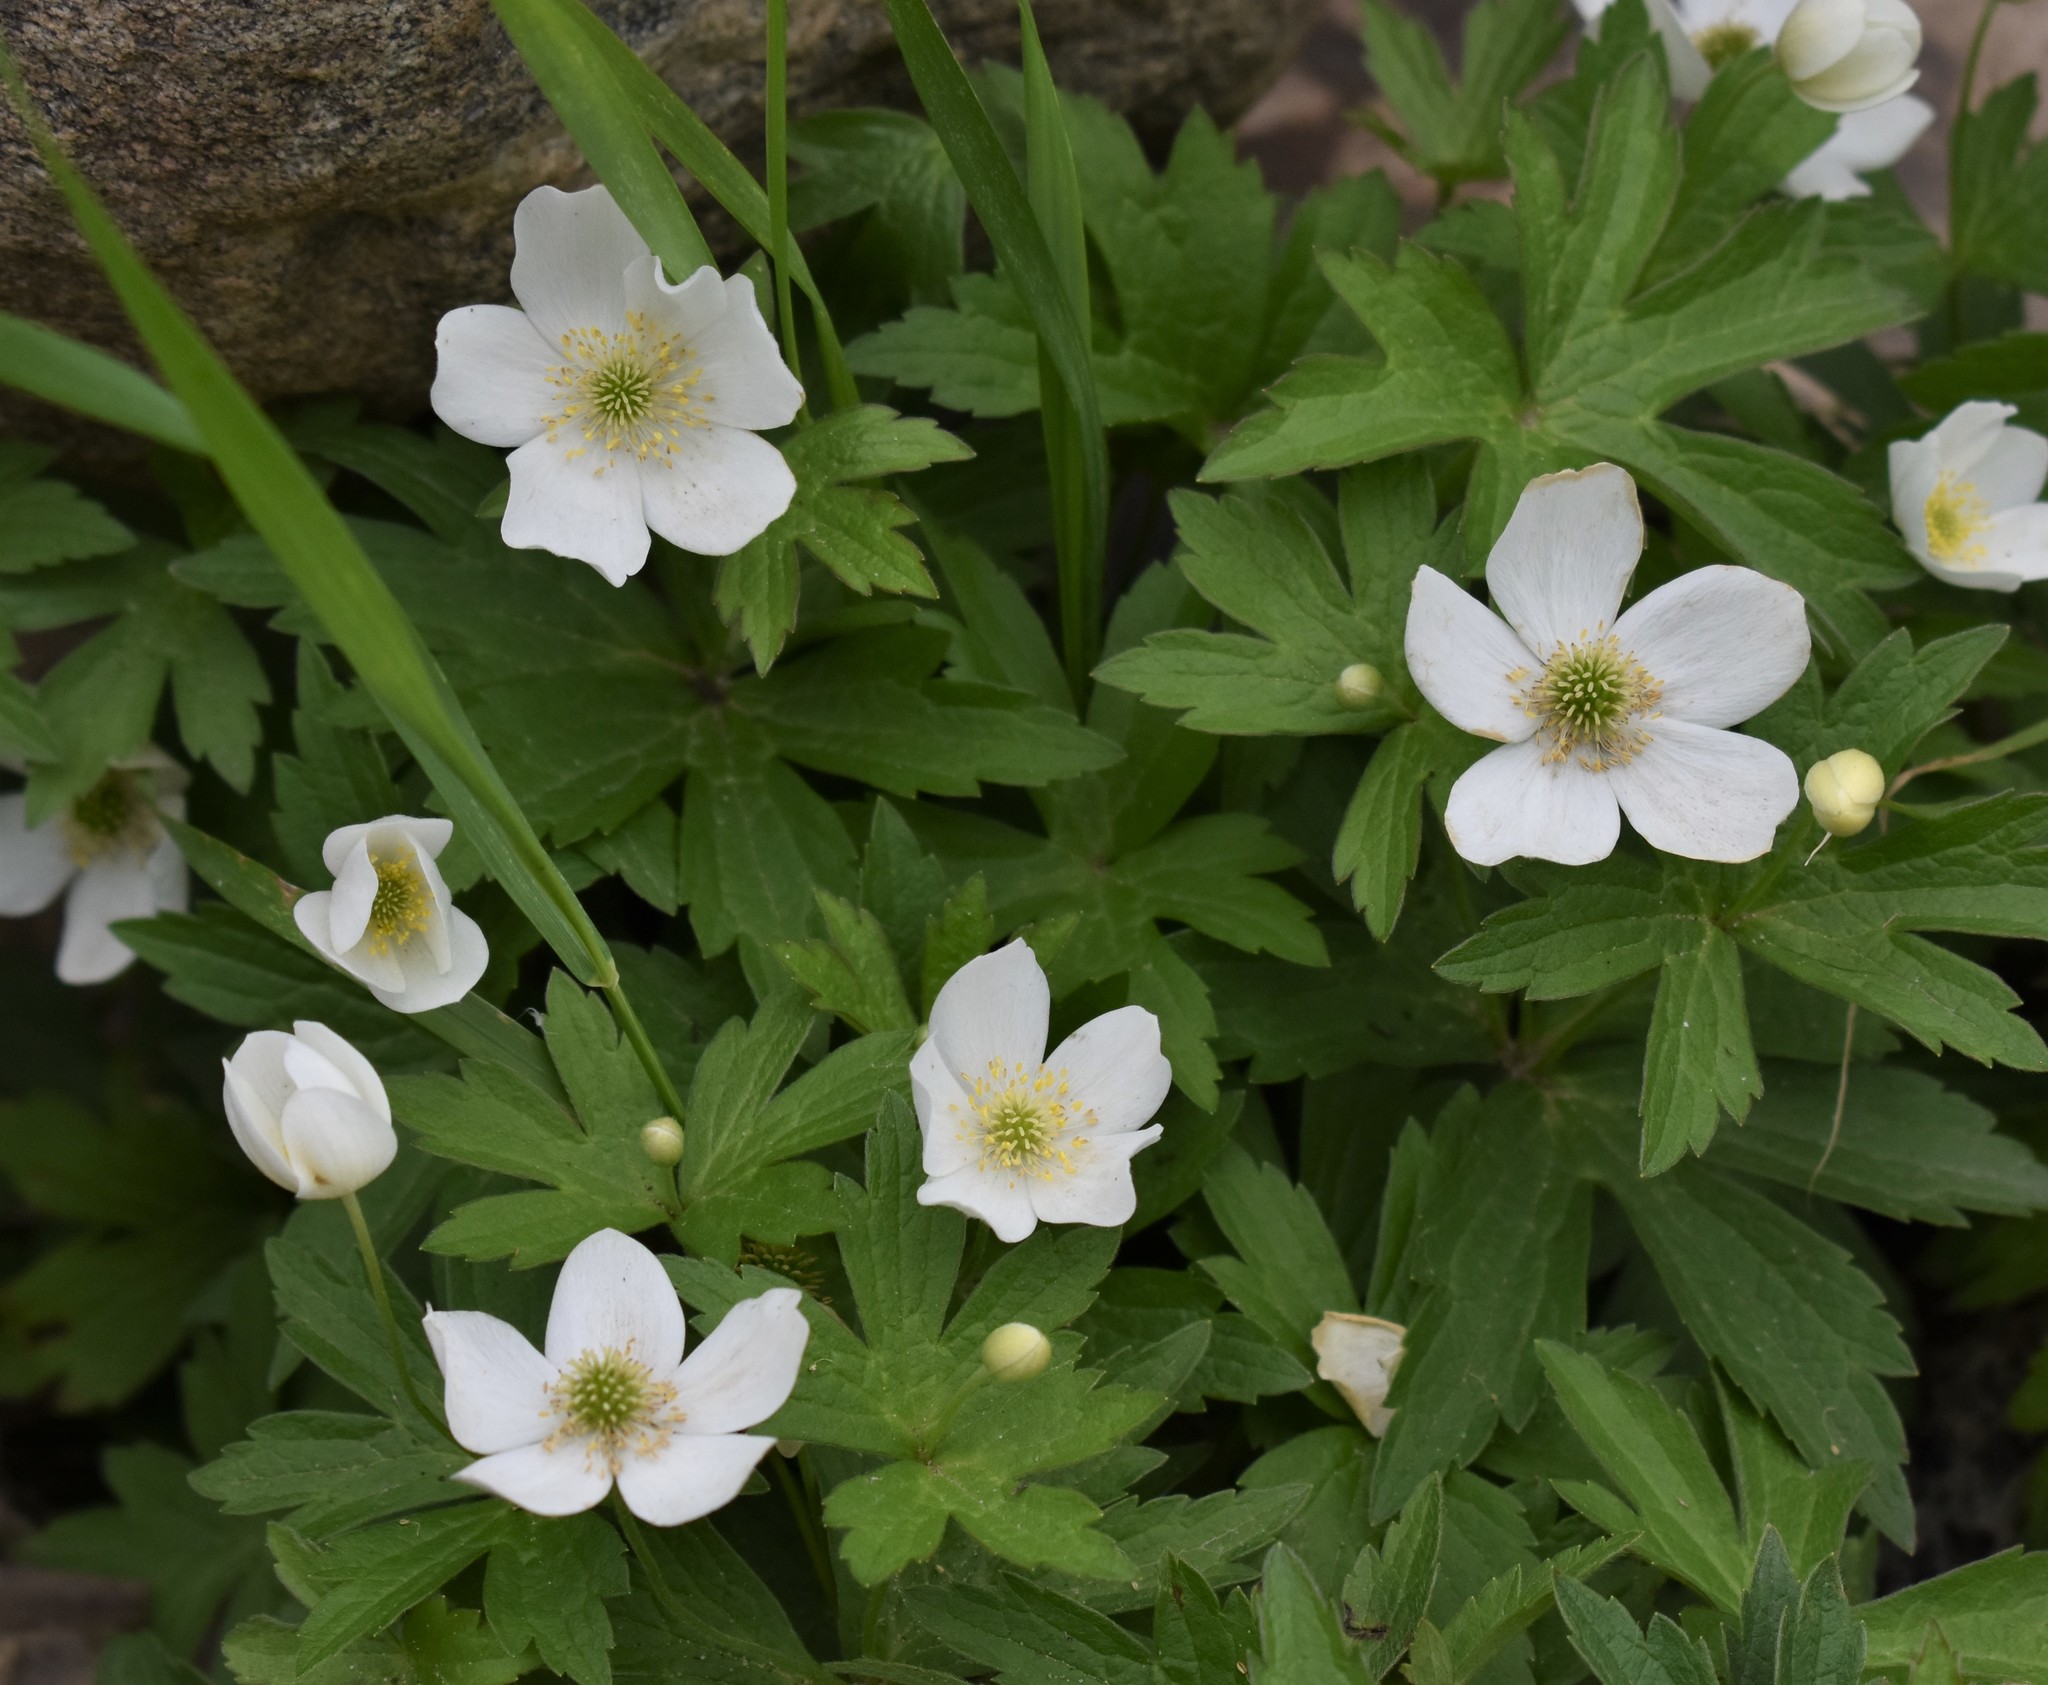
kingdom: Plantae
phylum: Tracheophyta
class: Magnoliopsida
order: Ranunculales
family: Ranunculaceae
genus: Anemonastrum
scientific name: Anemonastrum canadense
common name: Canada anemone
